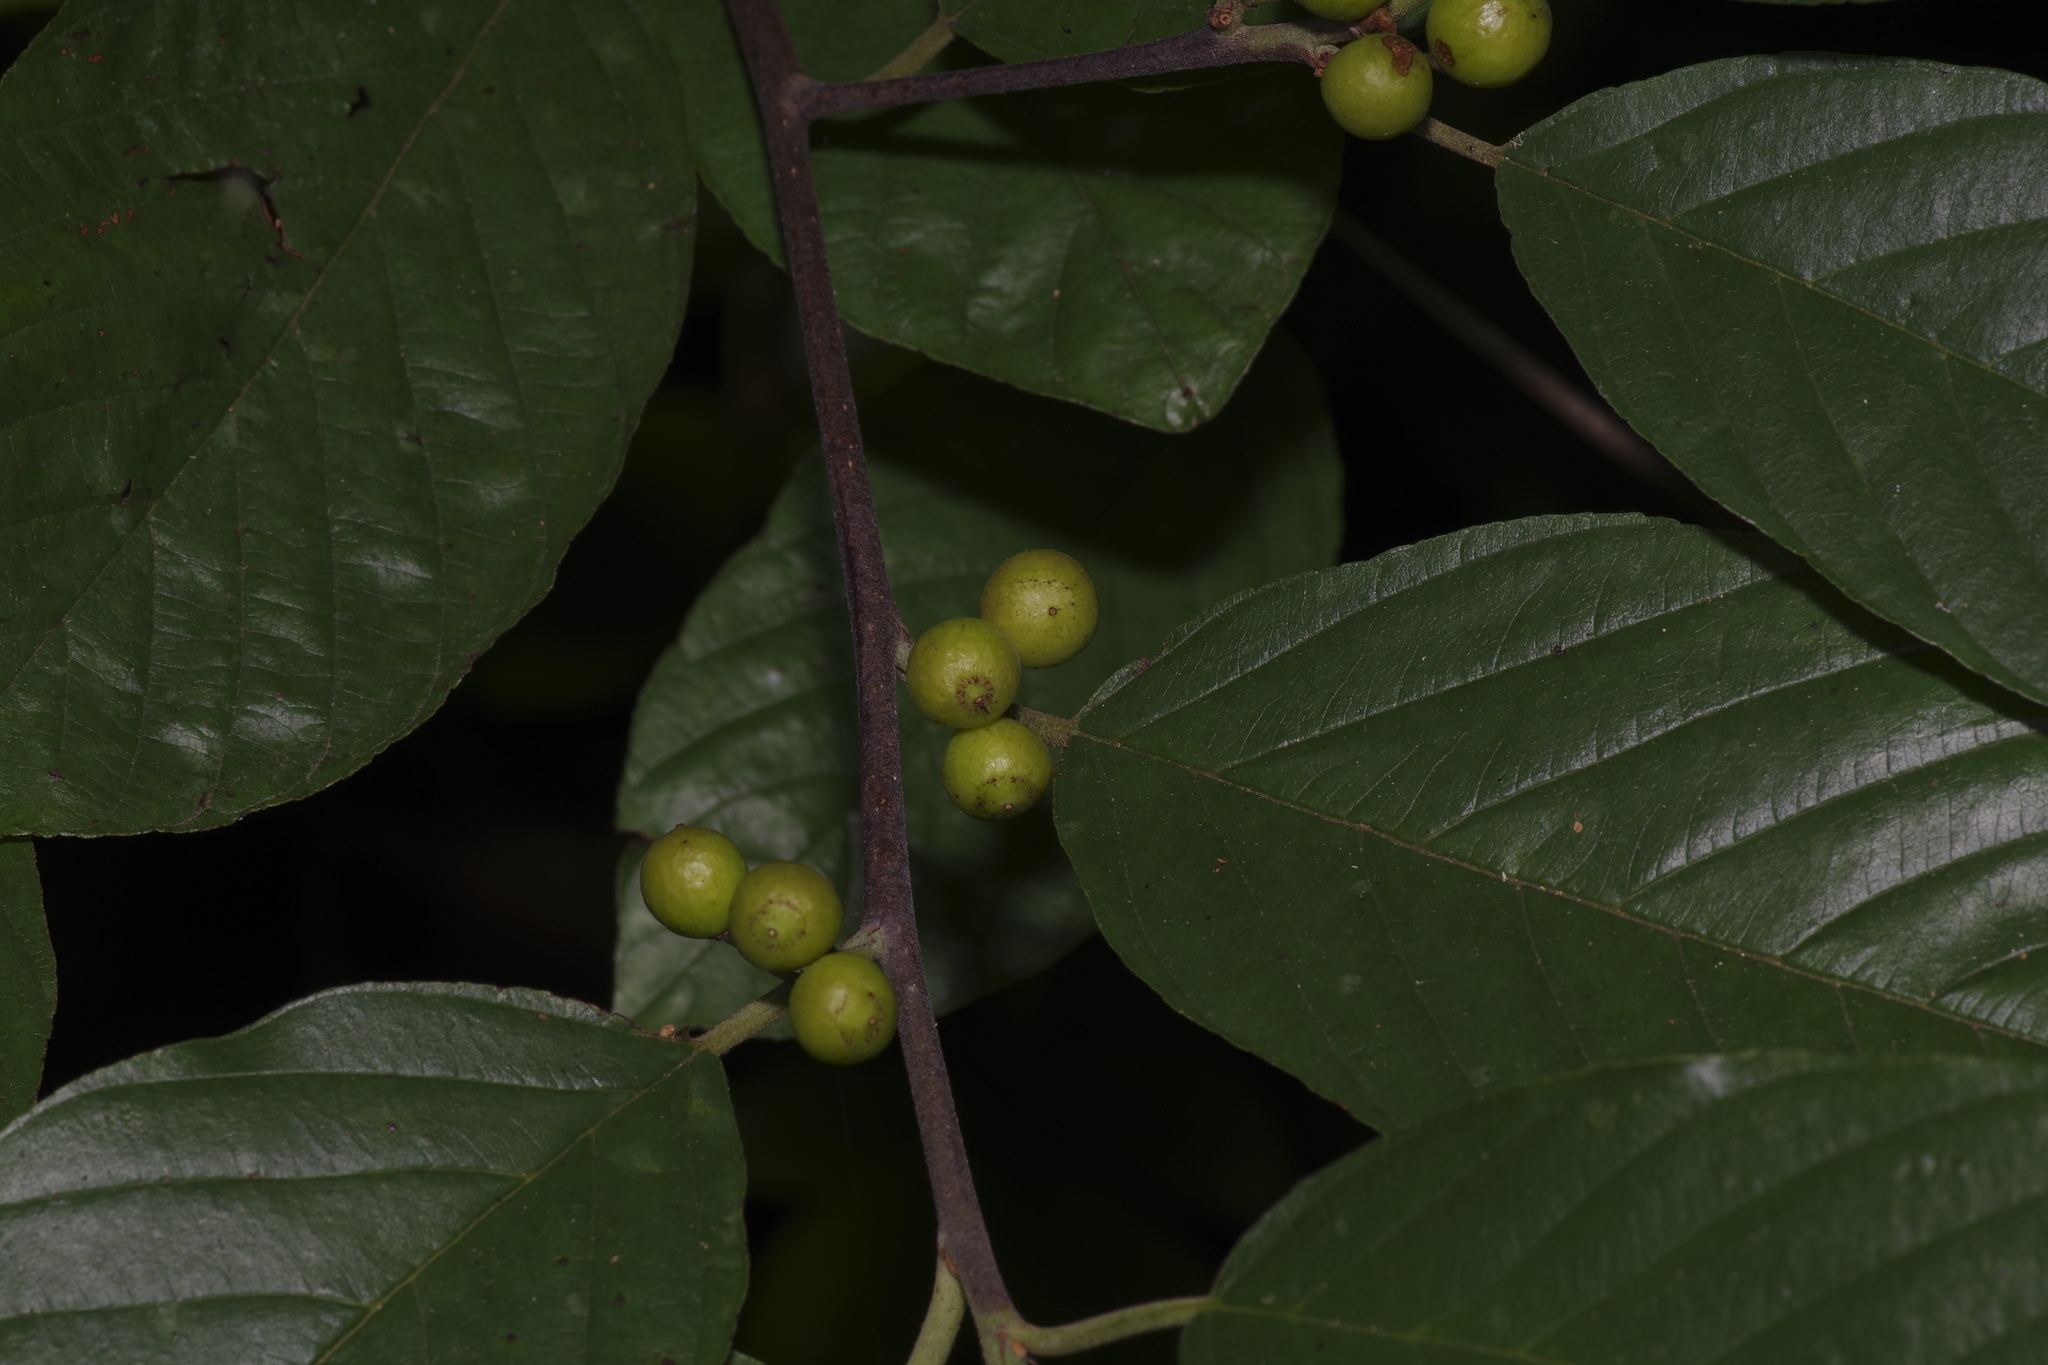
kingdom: Plantae
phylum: Tracheophyta
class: Magnoliopsida
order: Rosales
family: Rhamnaceae
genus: Frangula
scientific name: Frangula caroliniana
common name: Carolina buckthorn
